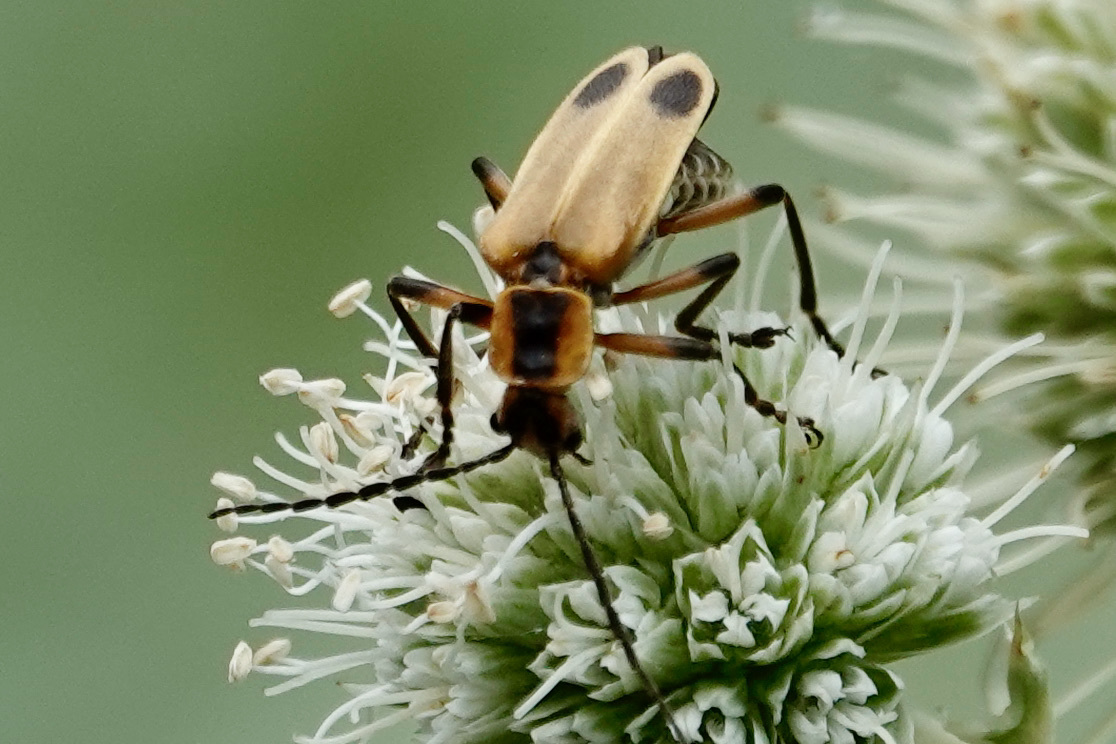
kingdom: Animalia
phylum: Arthropoda
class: Insecta
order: Coleoptera
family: Cantharidae
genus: Chauliognathus
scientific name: Chauliognathus marginatus
